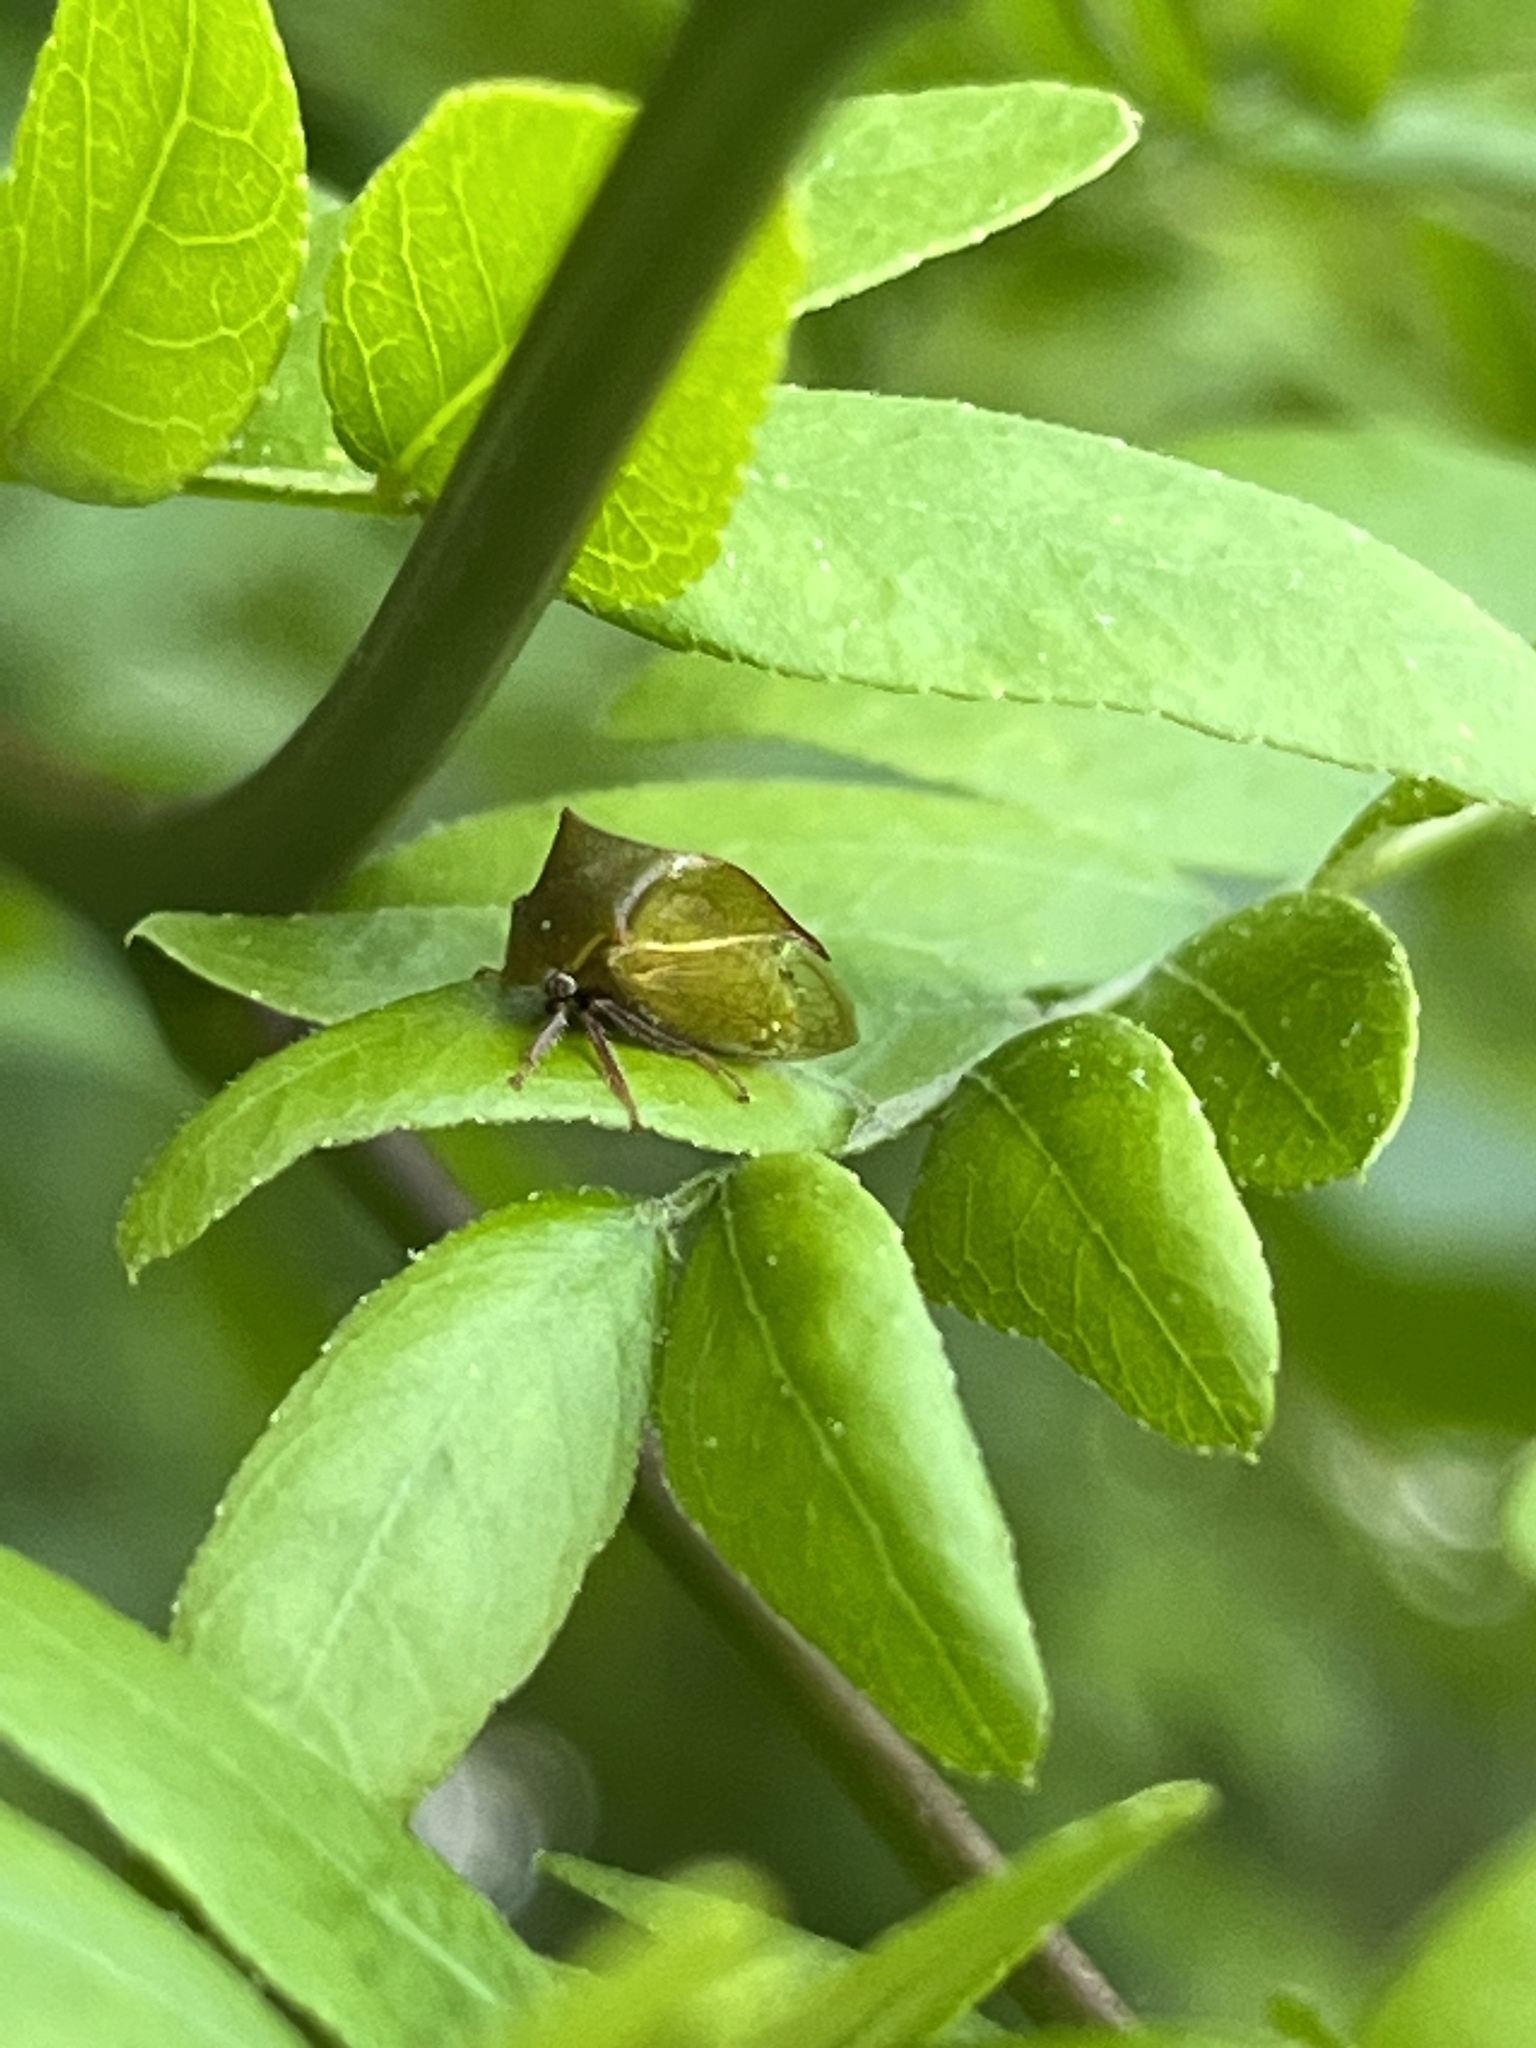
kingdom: Animalia
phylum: Arthropoda
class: Insecta
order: Hemiptera
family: Membracidae
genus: Stictocephala
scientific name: Stictocephala brevitylus
